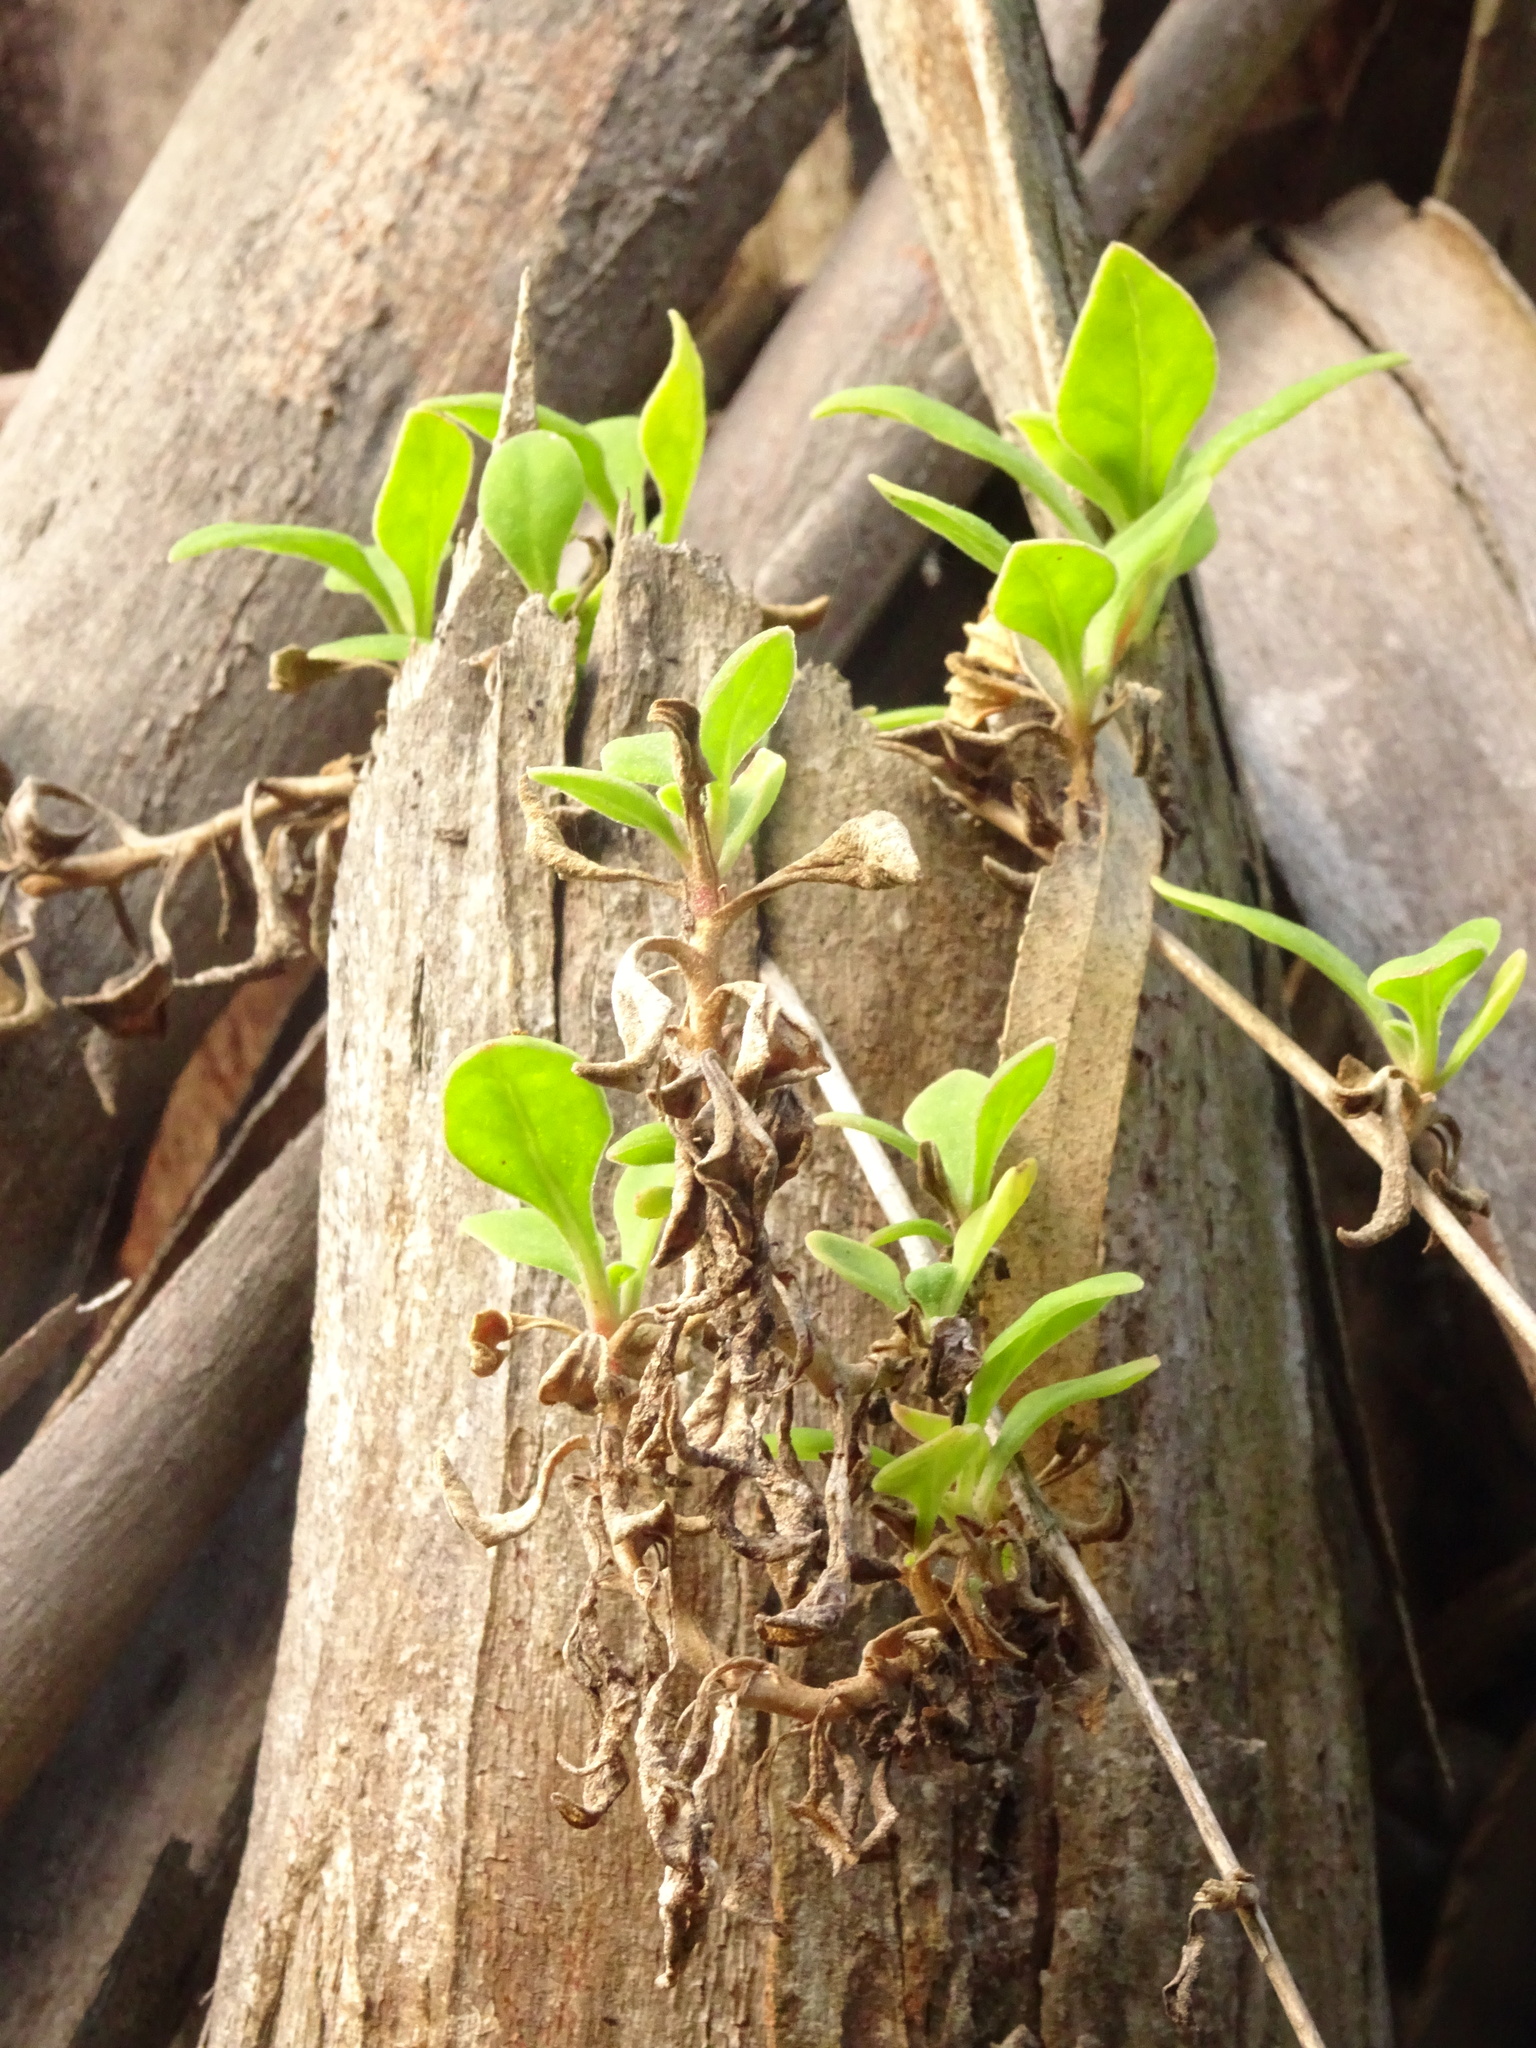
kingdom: Plantae
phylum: Tracheophyta
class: Magnoliopsida
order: Caryophyllales
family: Aizoaceae
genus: Tetragonia
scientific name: Tetragonia implexicoma
